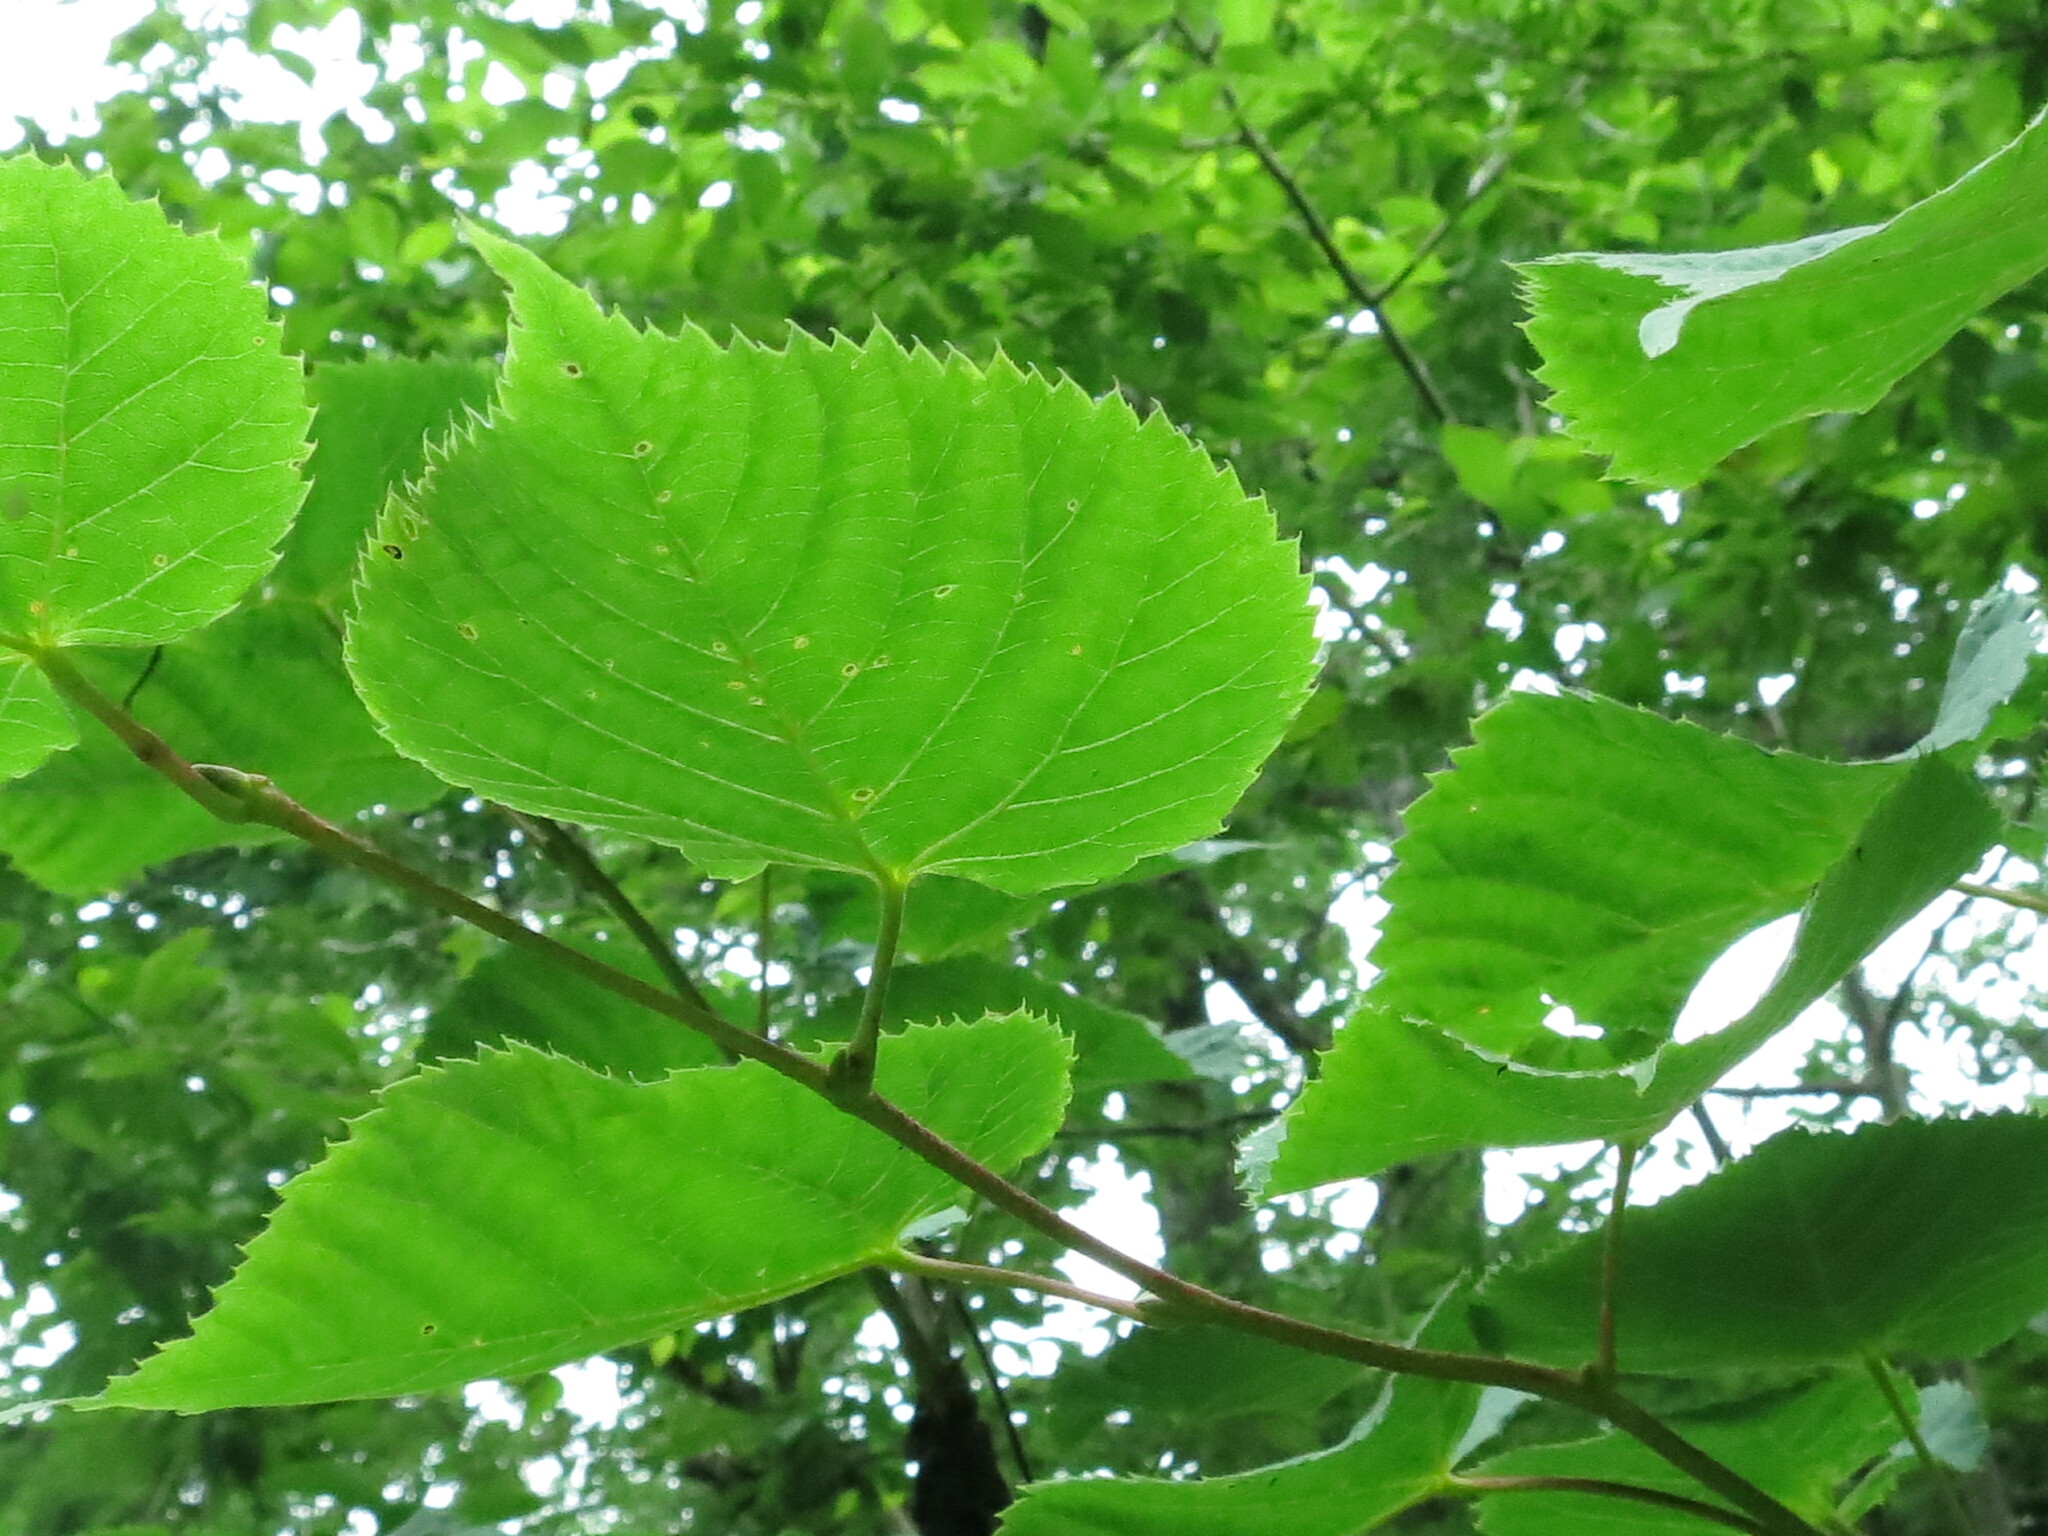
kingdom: Plantae
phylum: Tracheophyta
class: Magnoliopsida
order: Malvales
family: Malvaceae
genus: Tilia
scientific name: Tilia amurensis
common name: Amur lime
